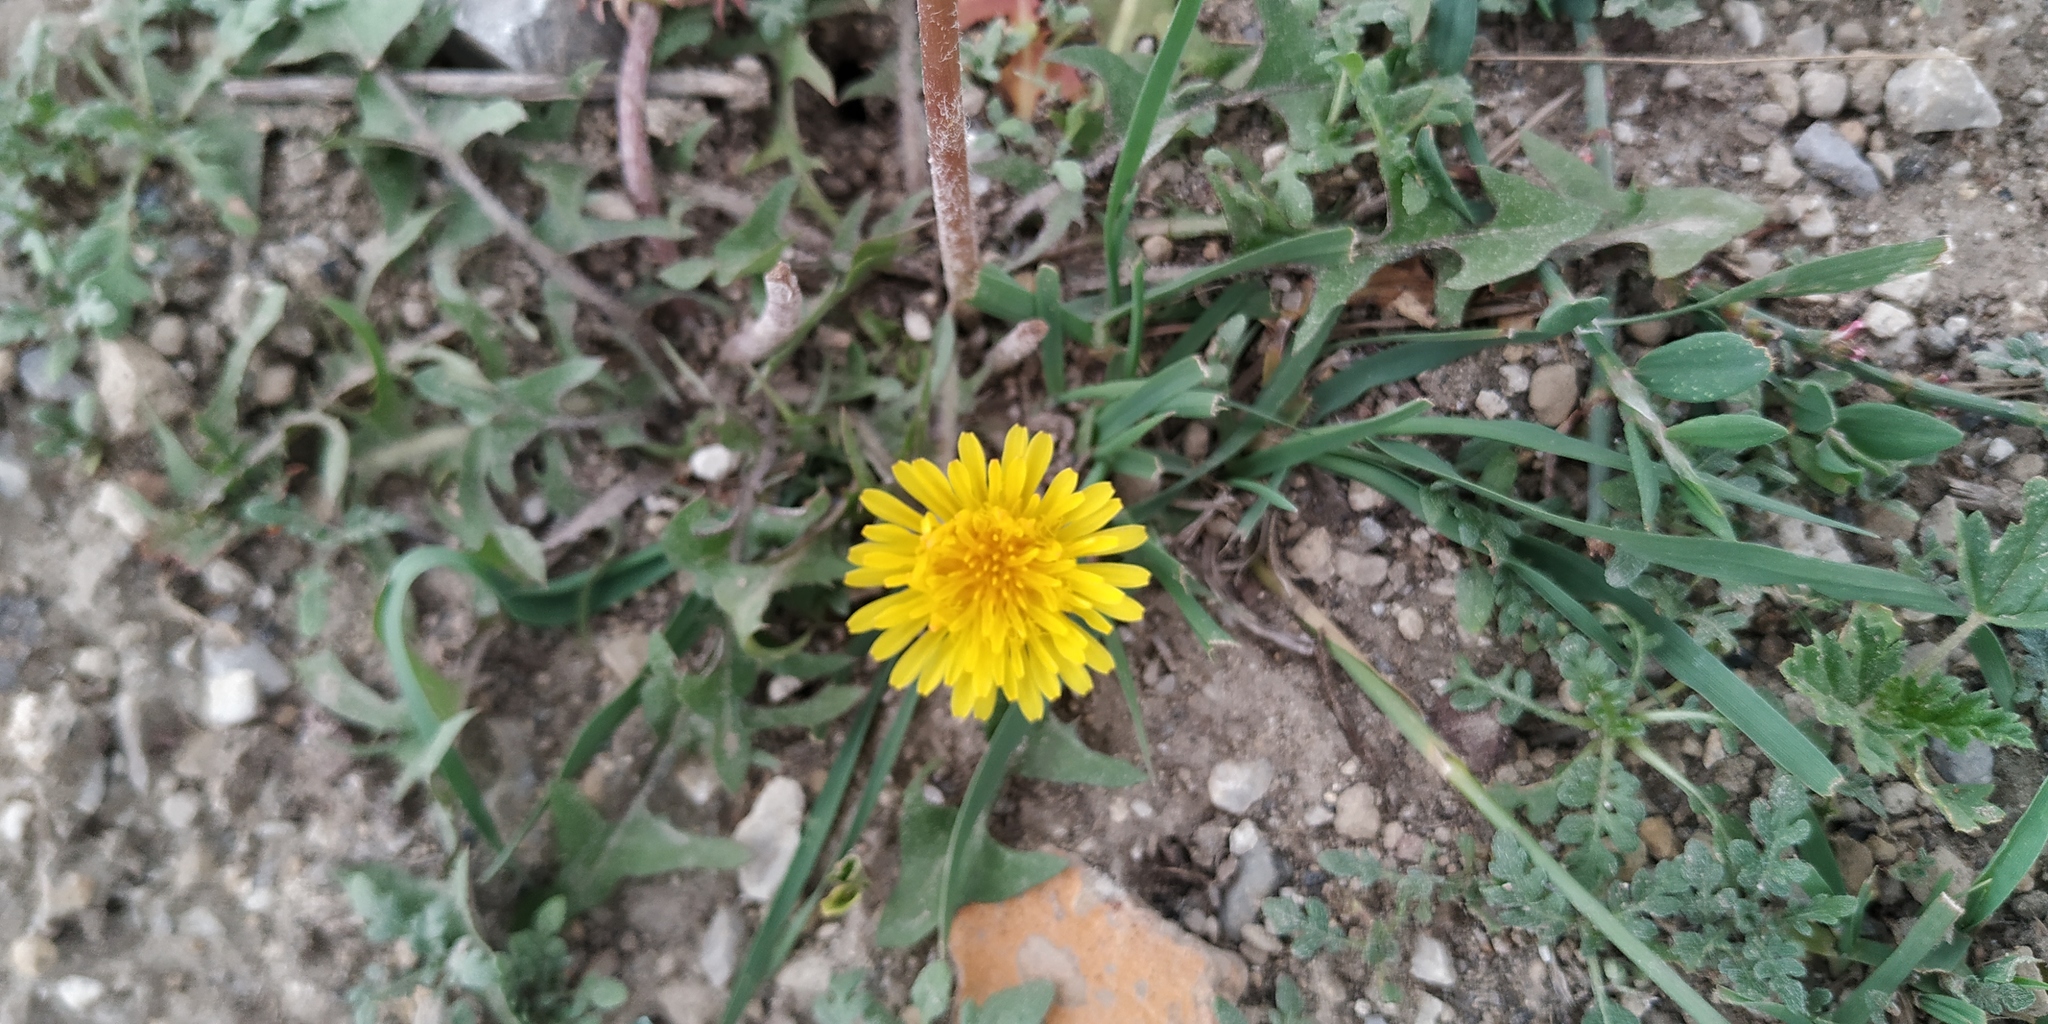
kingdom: Plantae
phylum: Tracheophyta
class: Magnoliopsida
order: Asterales
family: Asteraceae
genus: Taraxacum
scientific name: Taraxacum officinale
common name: Common dandelion
